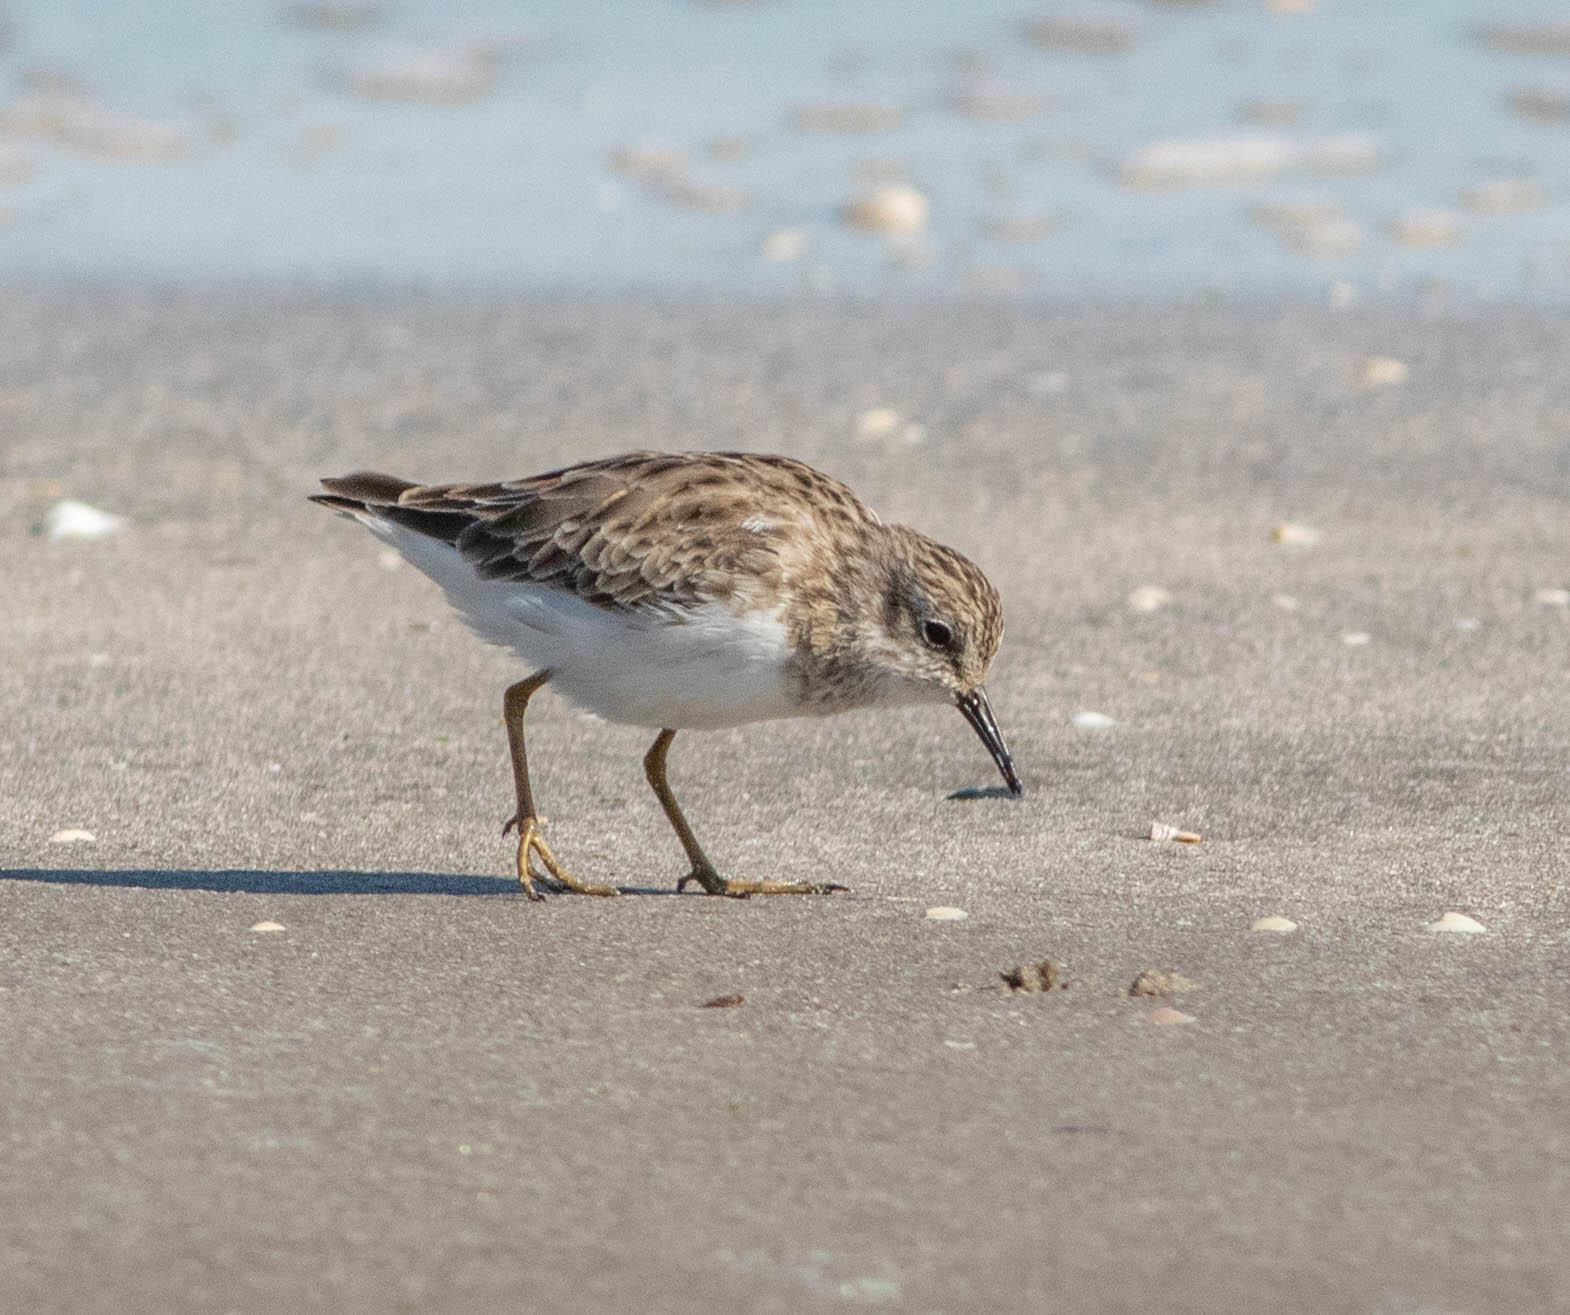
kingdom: Animalia
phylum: Chordata
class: Aves
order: Charadriiformes
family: Scolopacidae
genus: Calidris
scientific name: Calidris minutilla
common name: Least sandpiper
